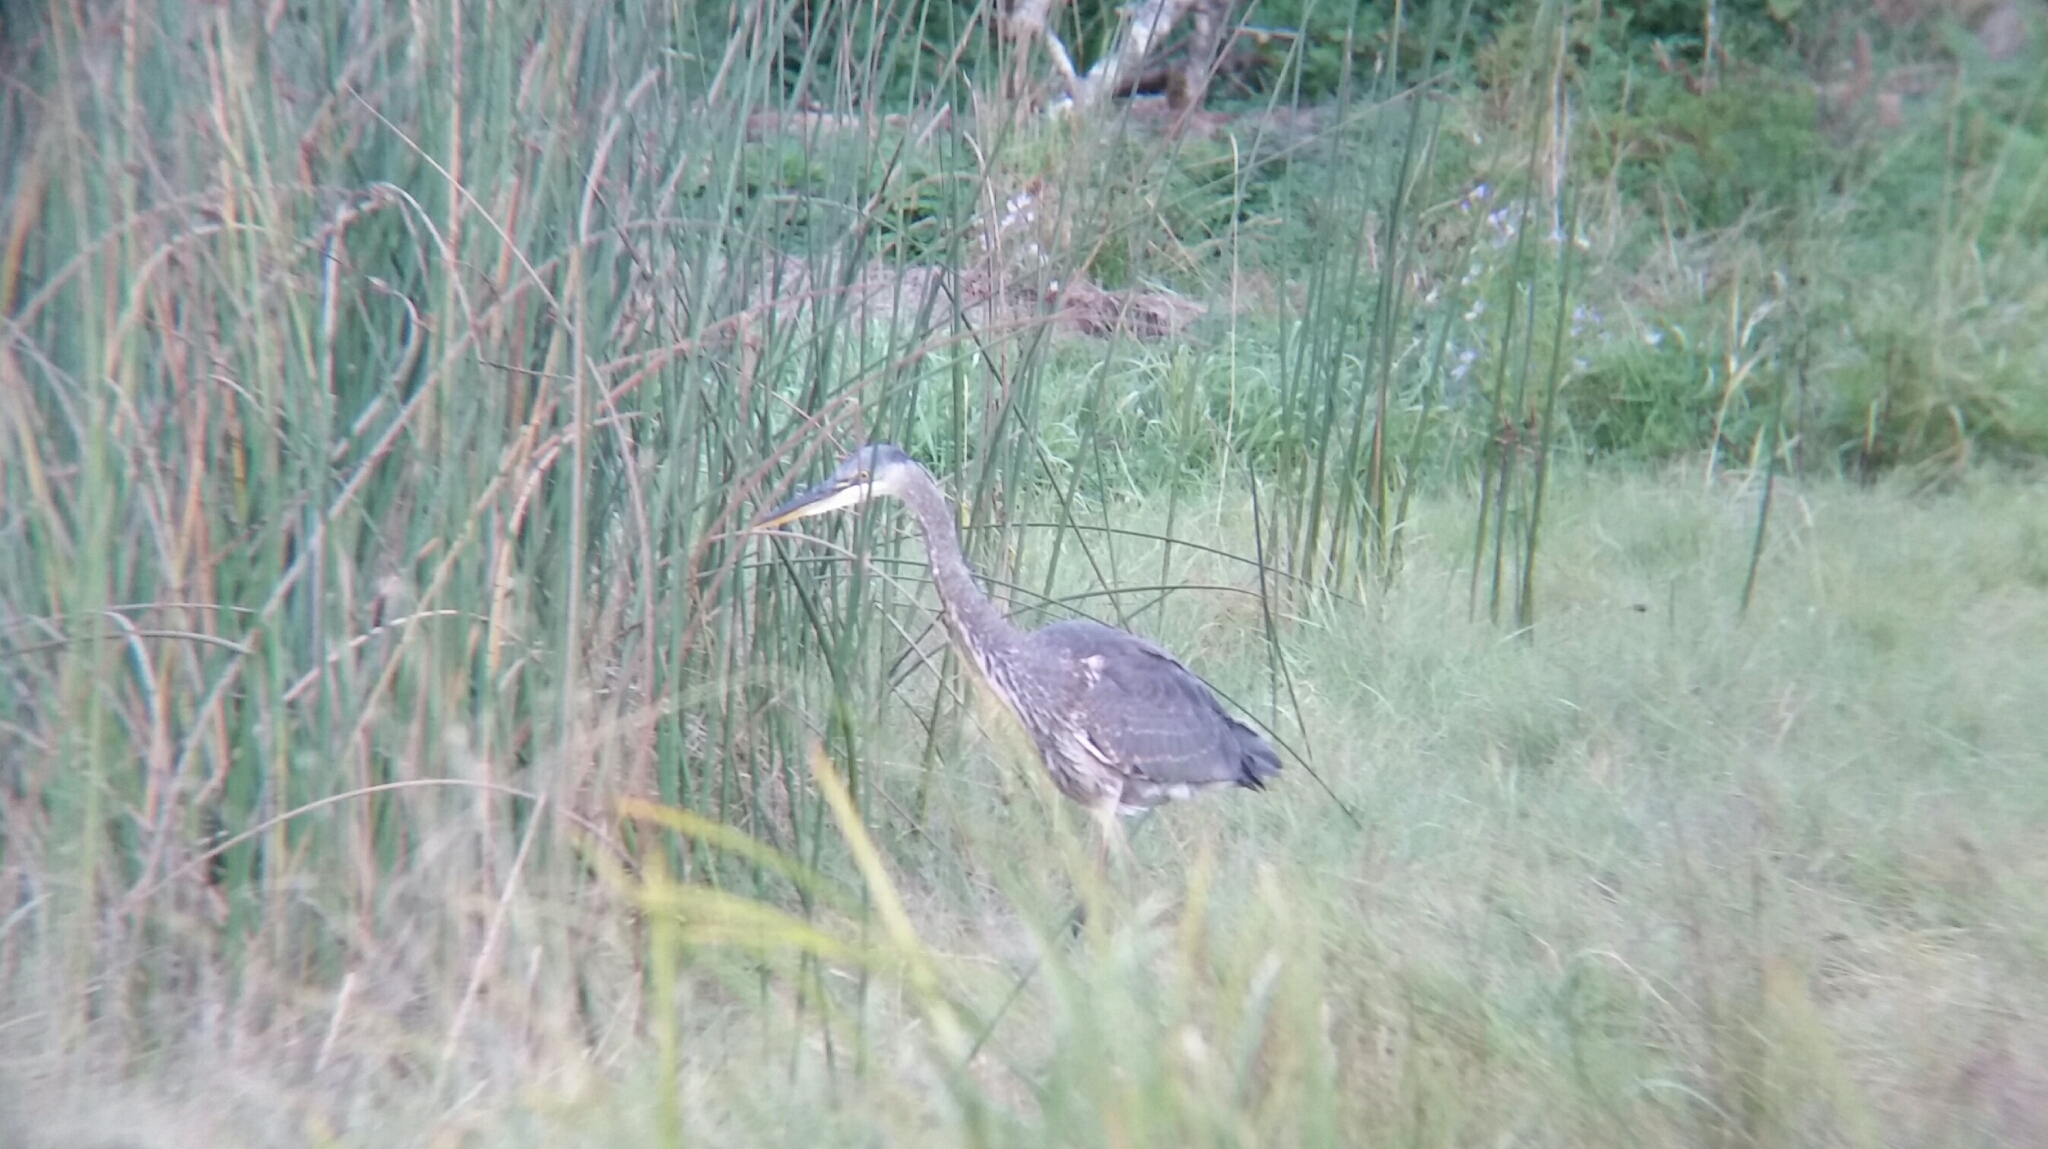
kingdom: Animalia
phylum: Chordata
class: Aves
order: Pelecaniformes
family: Ardeidae
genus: Ardea
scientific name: Ardea herodias
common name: Great blue heron
